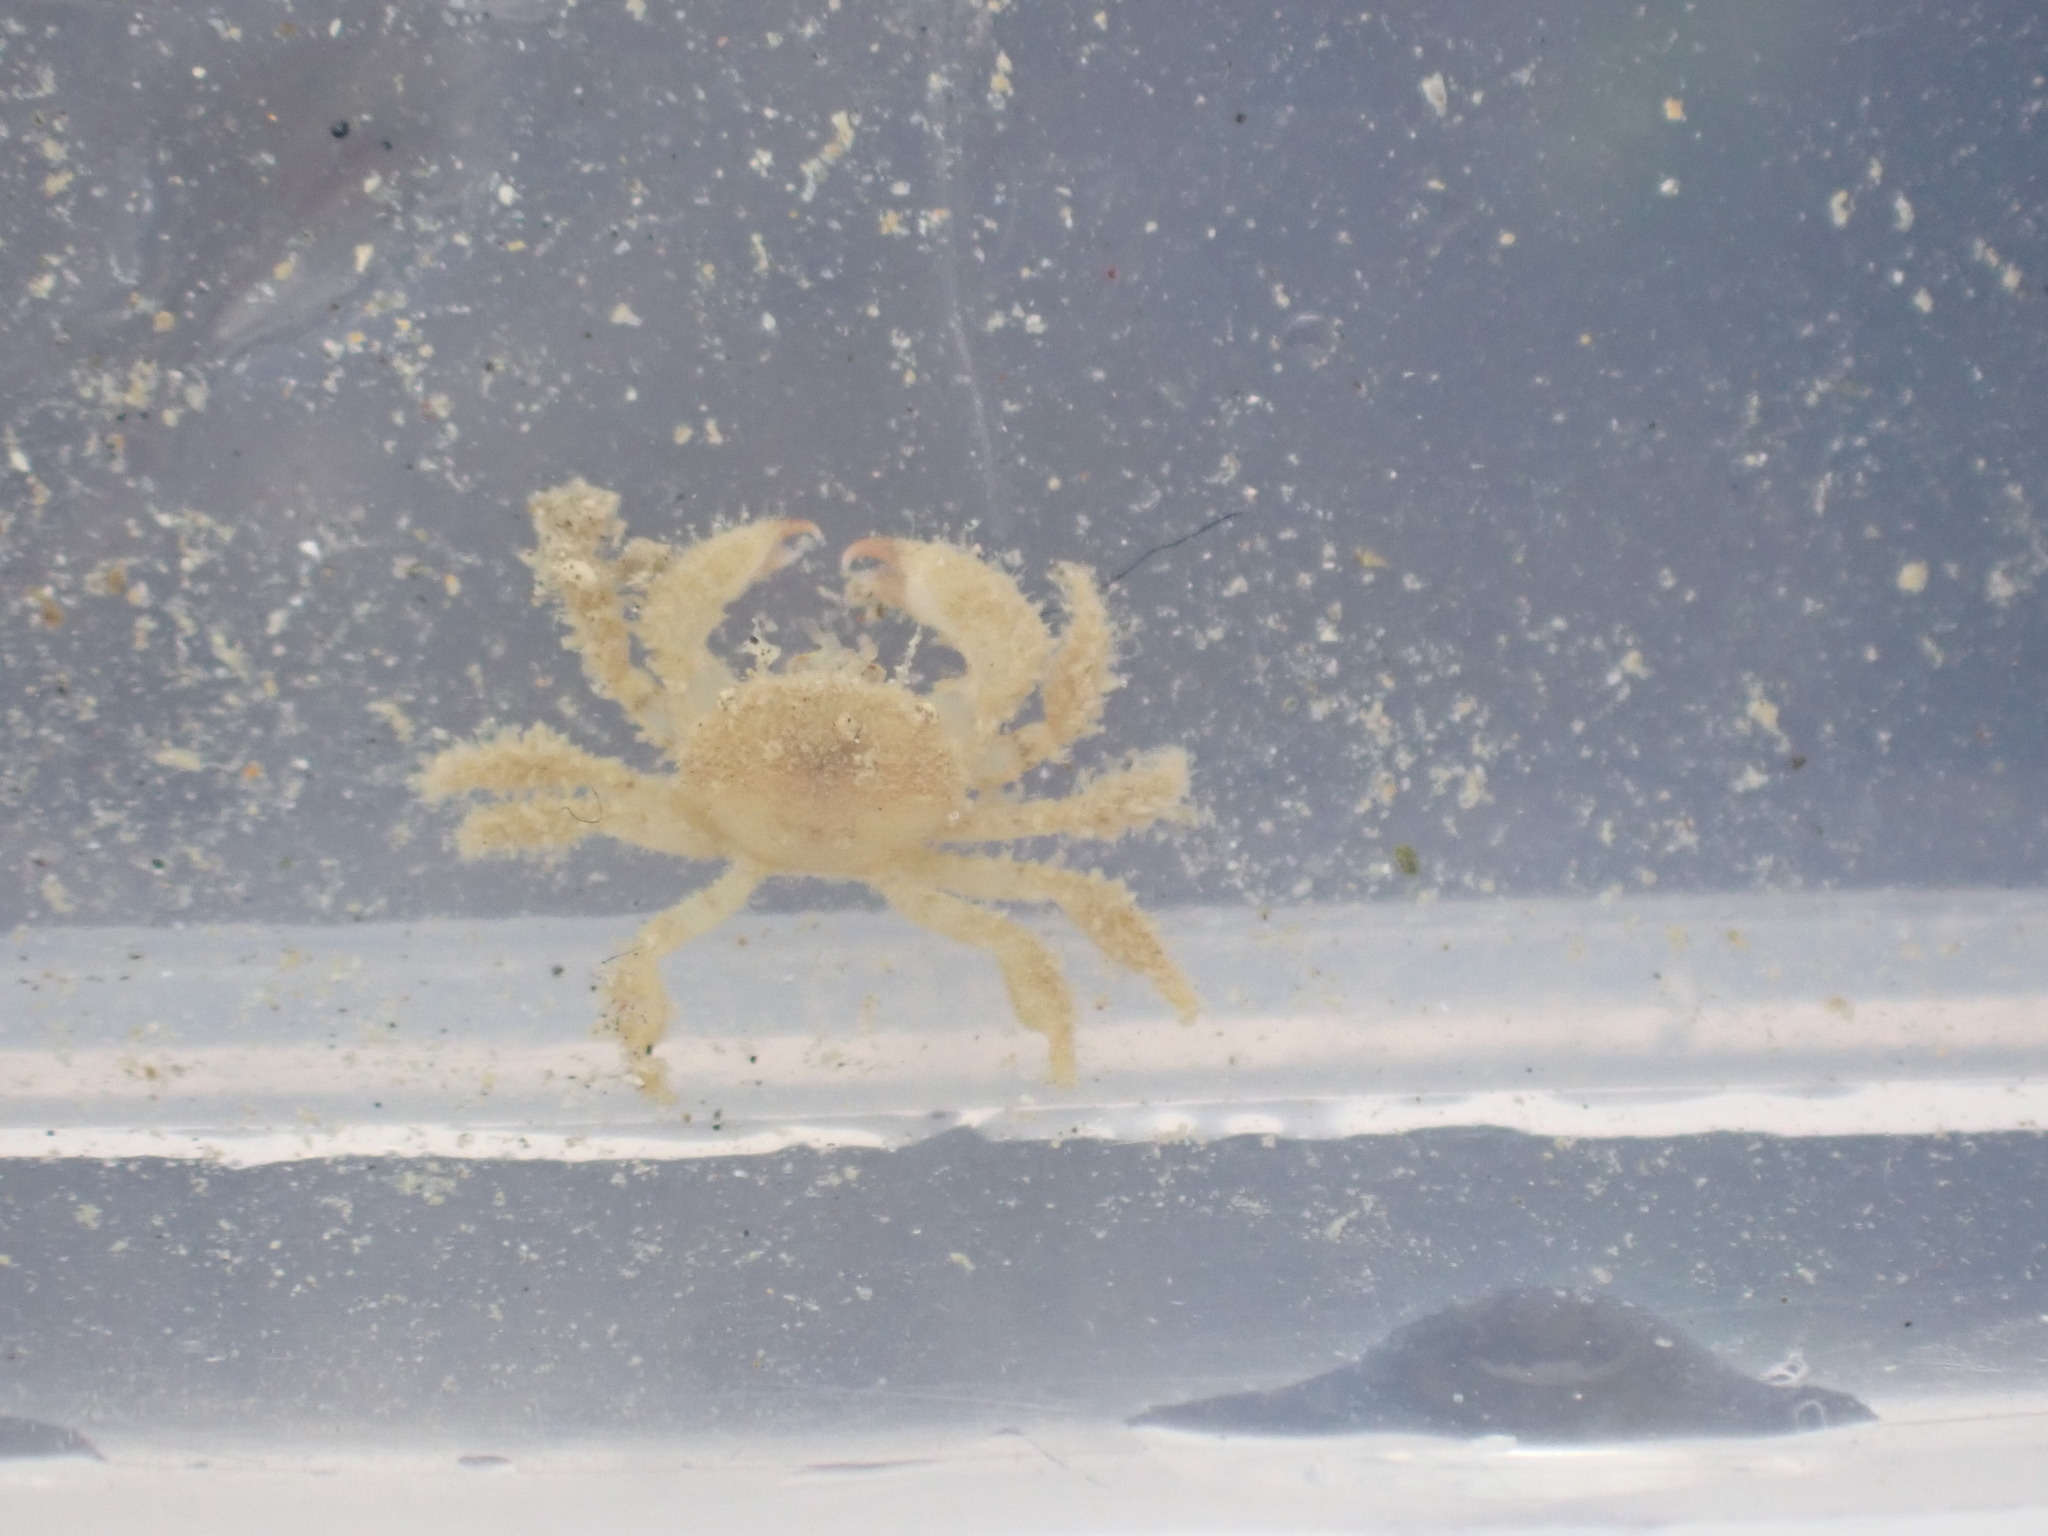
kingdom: Animalia
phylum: Arthropoda
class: Malacostraca
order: Decapoda
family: Pilumnidae
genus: Pilumnus
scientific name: Pilumnus lumpinus
